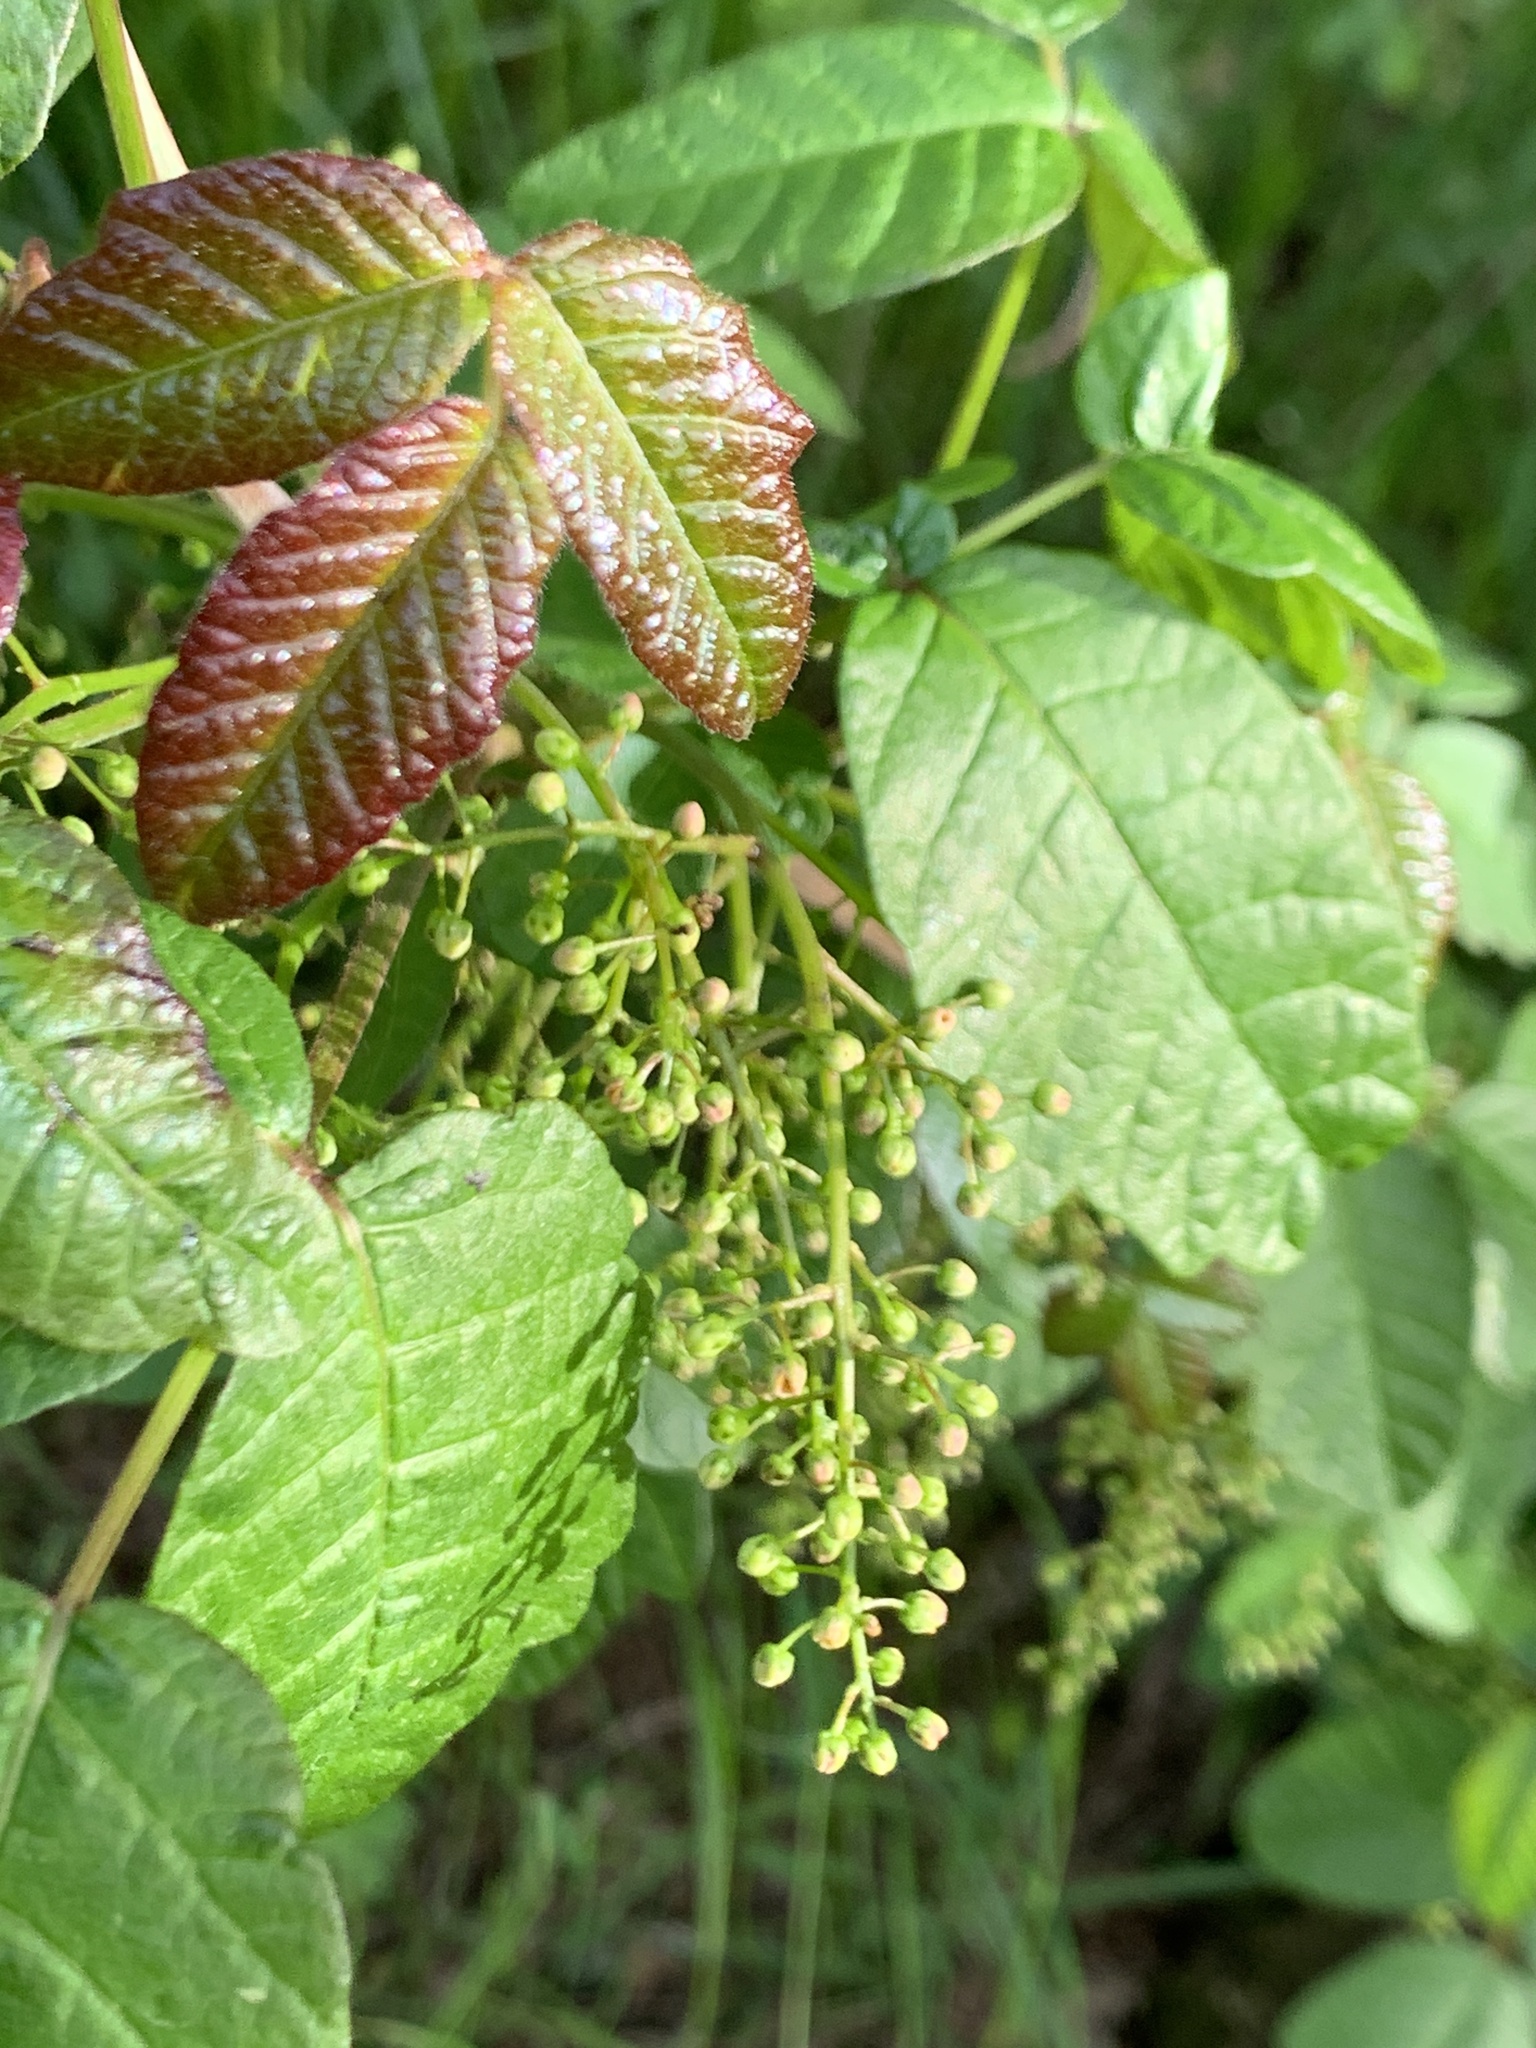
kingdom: Plantae
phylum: Tracheophyta
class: Magnoliopsida
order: Sapindales
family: Anacardiaceae
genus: Toxicodendron
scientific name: Toxicodendron diversilobum
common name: Pacific poison-oak
